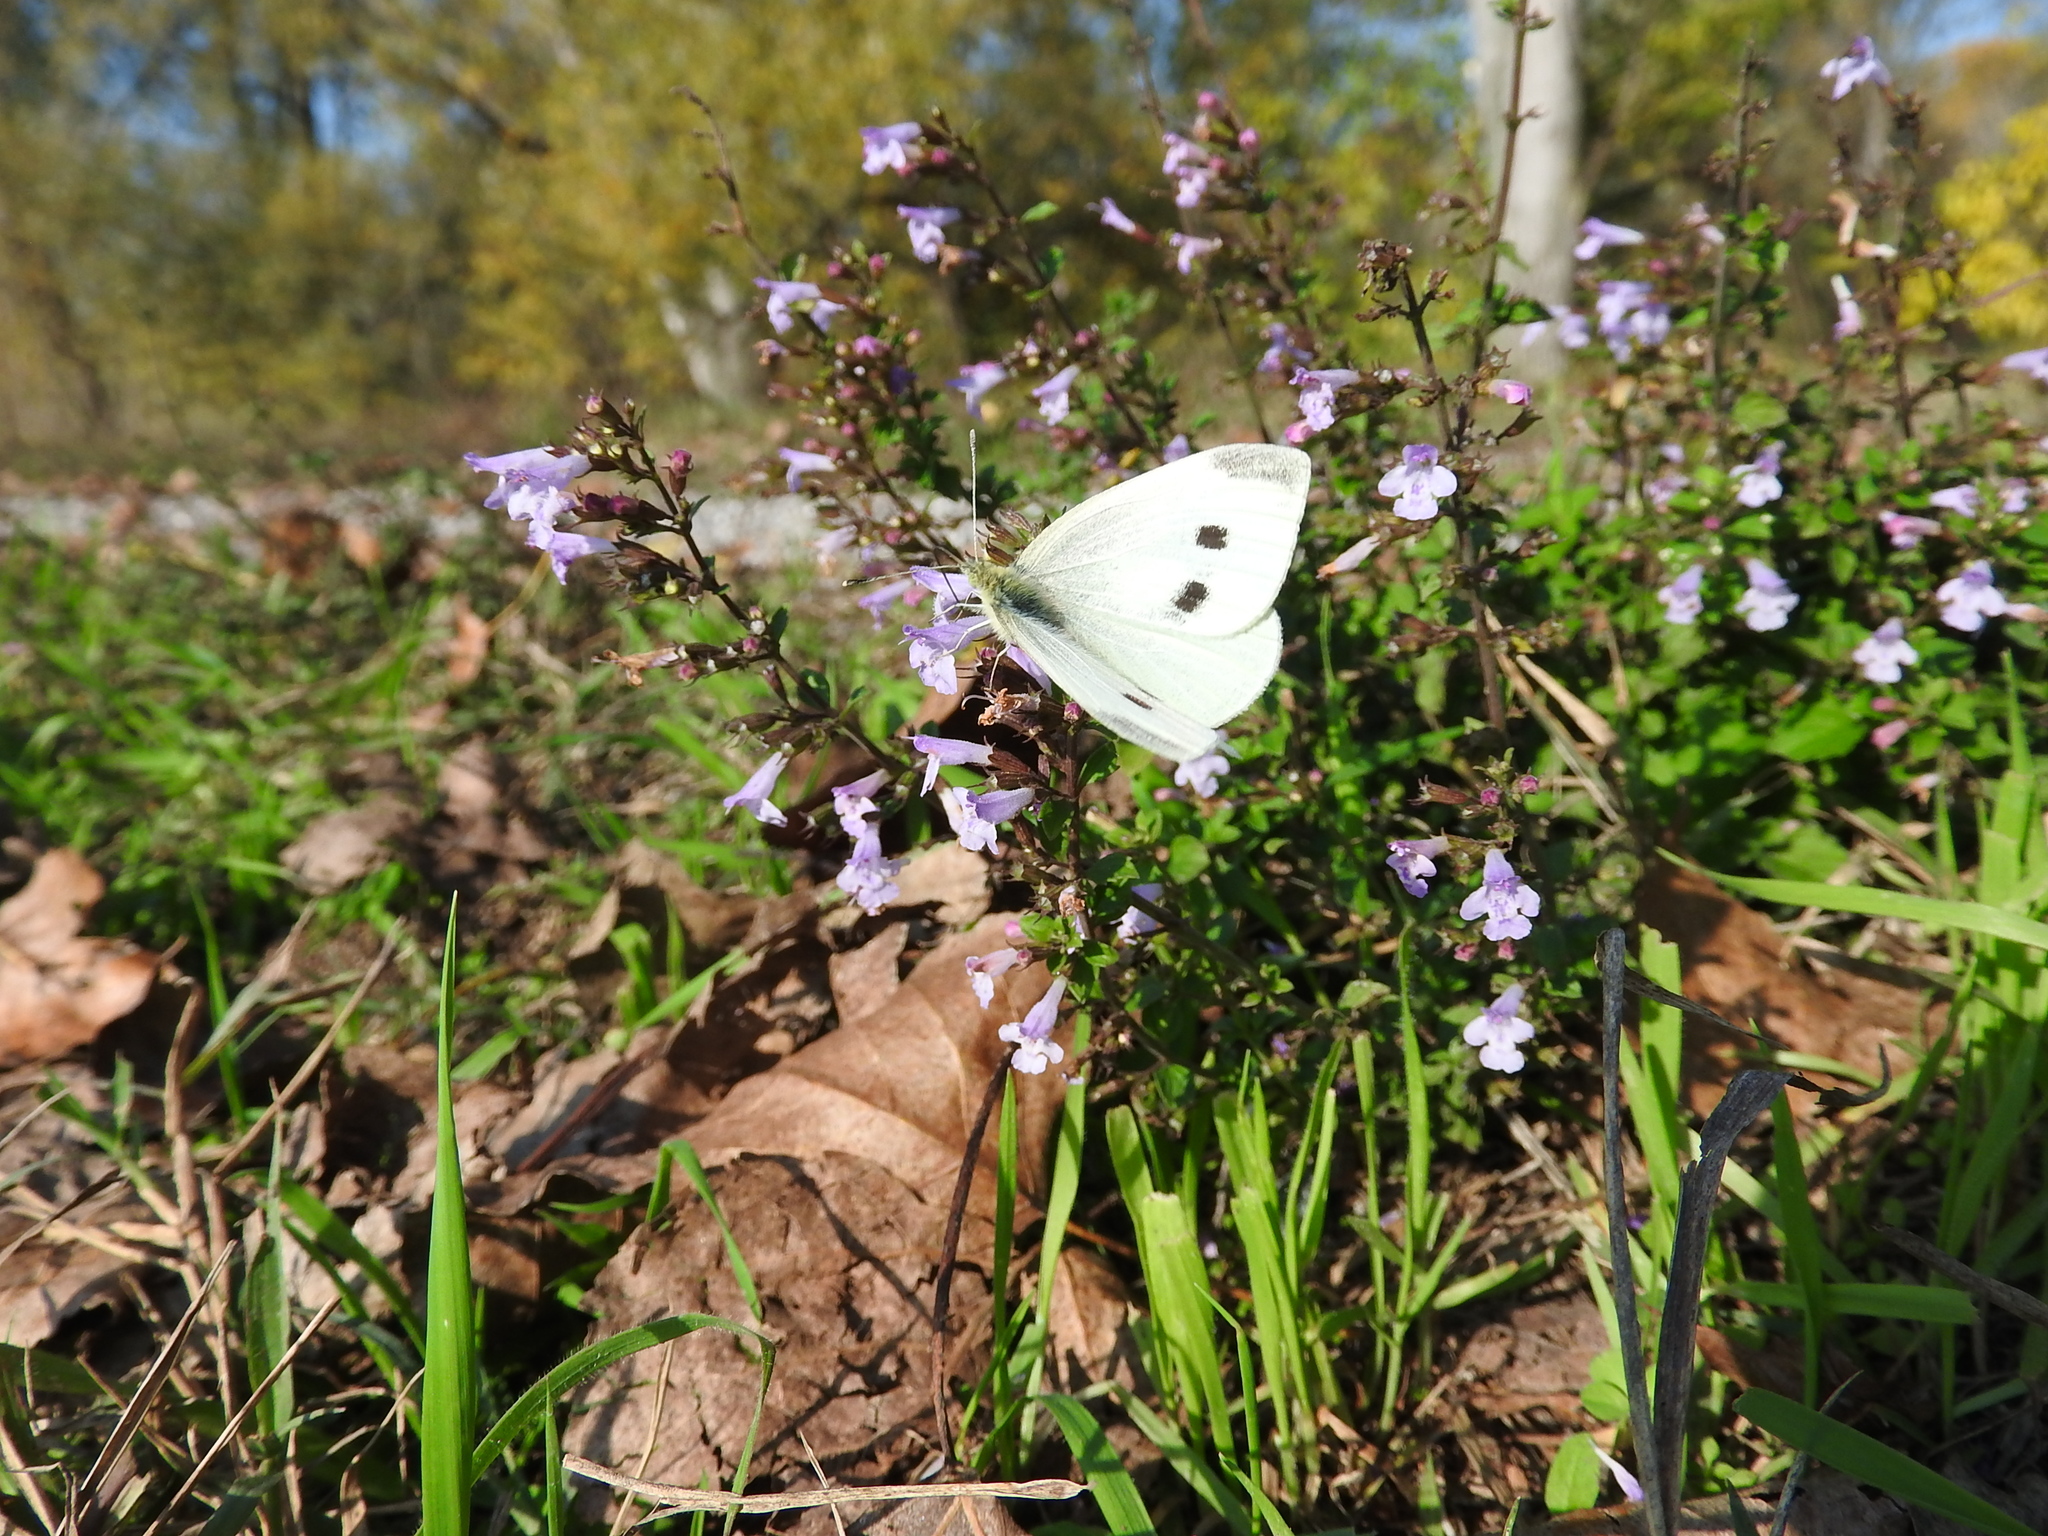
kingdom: Animalia
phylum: Arthropoda
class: Insecta
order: Lepidoptera
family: Pieridae
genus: Pieris
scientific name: Pieris rapae
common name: Small white
